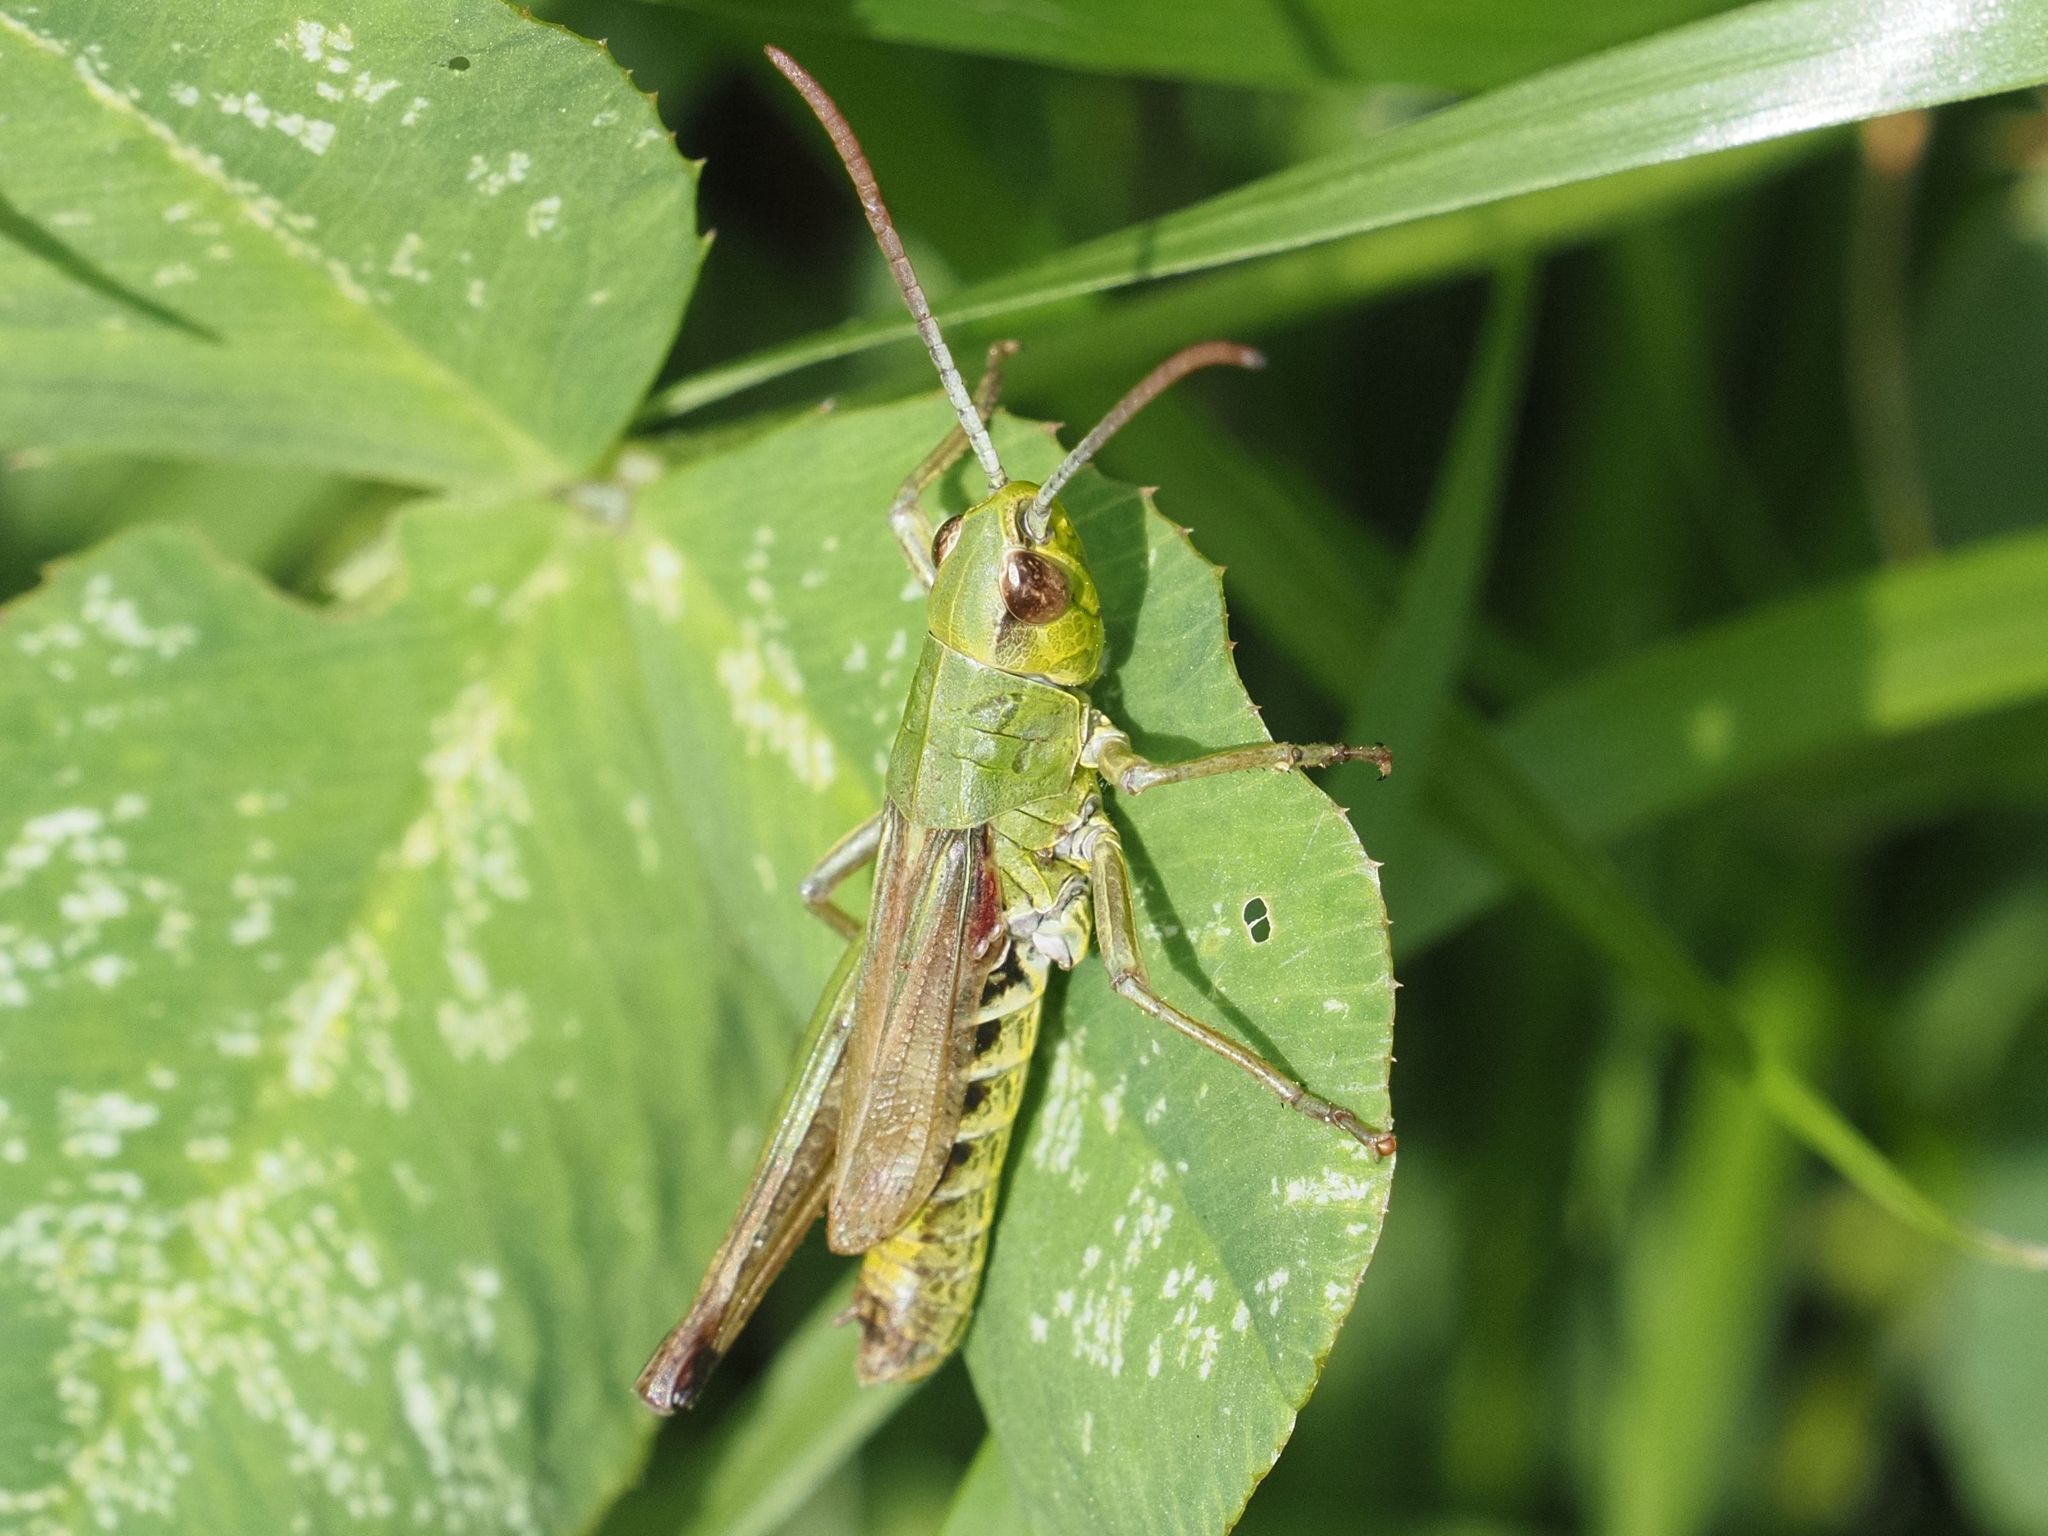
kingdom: Animalia
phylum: Arthropoda
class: Insecta
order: Orthoptera
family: Acrididae
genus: Pseudochorthippus
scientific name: Pseudochorthippus parallelus
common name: Meadow grasshopper
